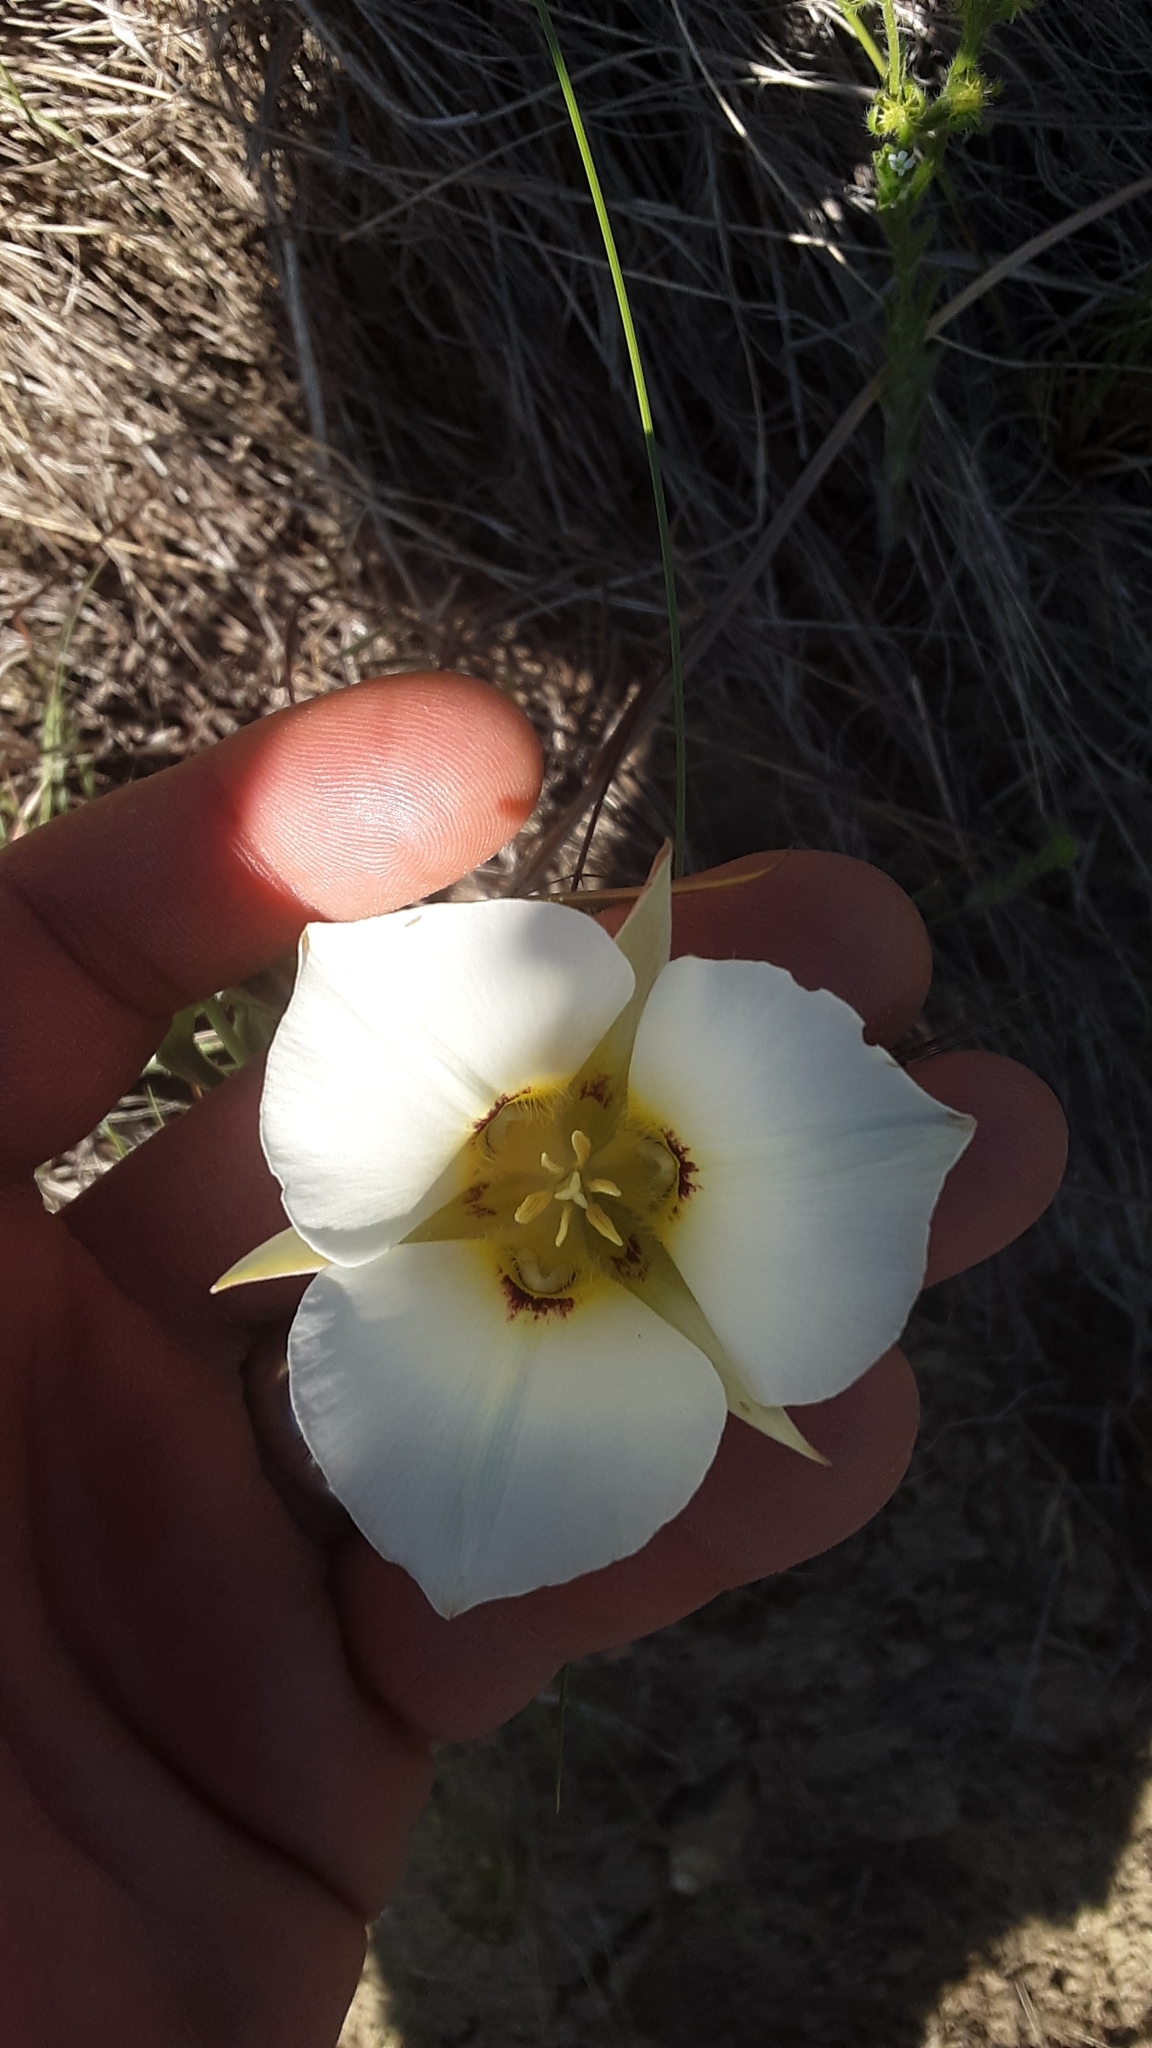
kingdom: Plantae
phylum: Tracheophyta
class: Liliopsida
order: Liliales
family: Liliaceae
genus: Calochortus
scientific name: Calochortus nuttallii
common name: Sego-lily
